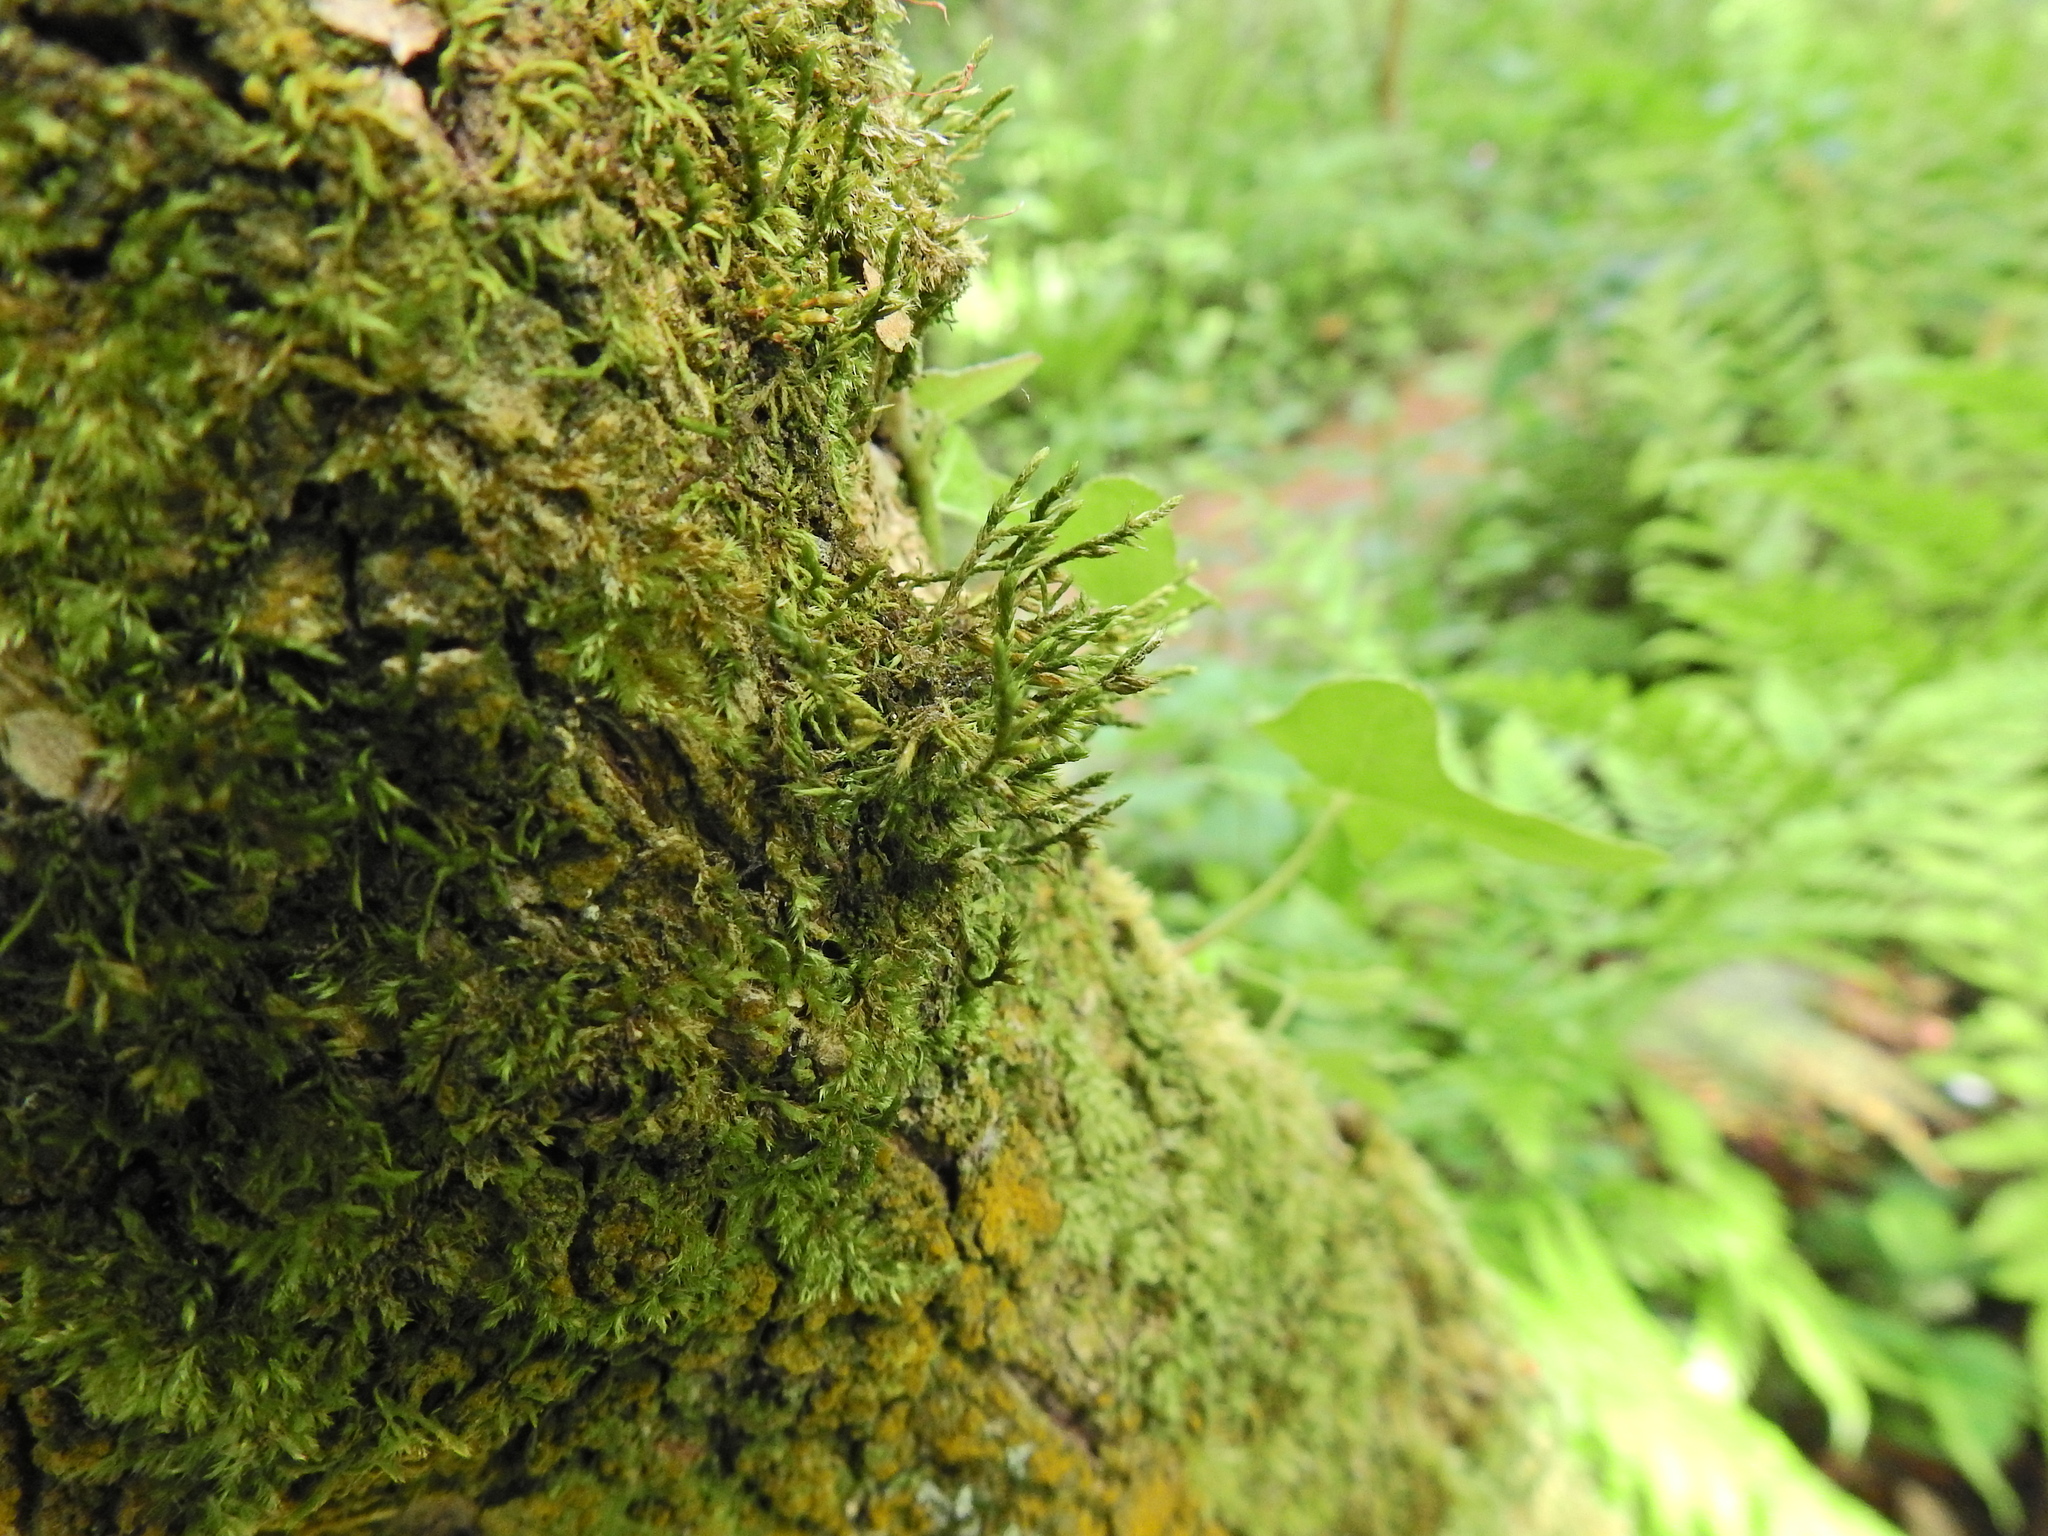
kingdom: Plantae
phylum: Bryophyta
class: Bryopsida
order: Hypnales
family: Cryphaeaceae
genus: Cryphaea
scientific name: Cryphaea heteromalla
